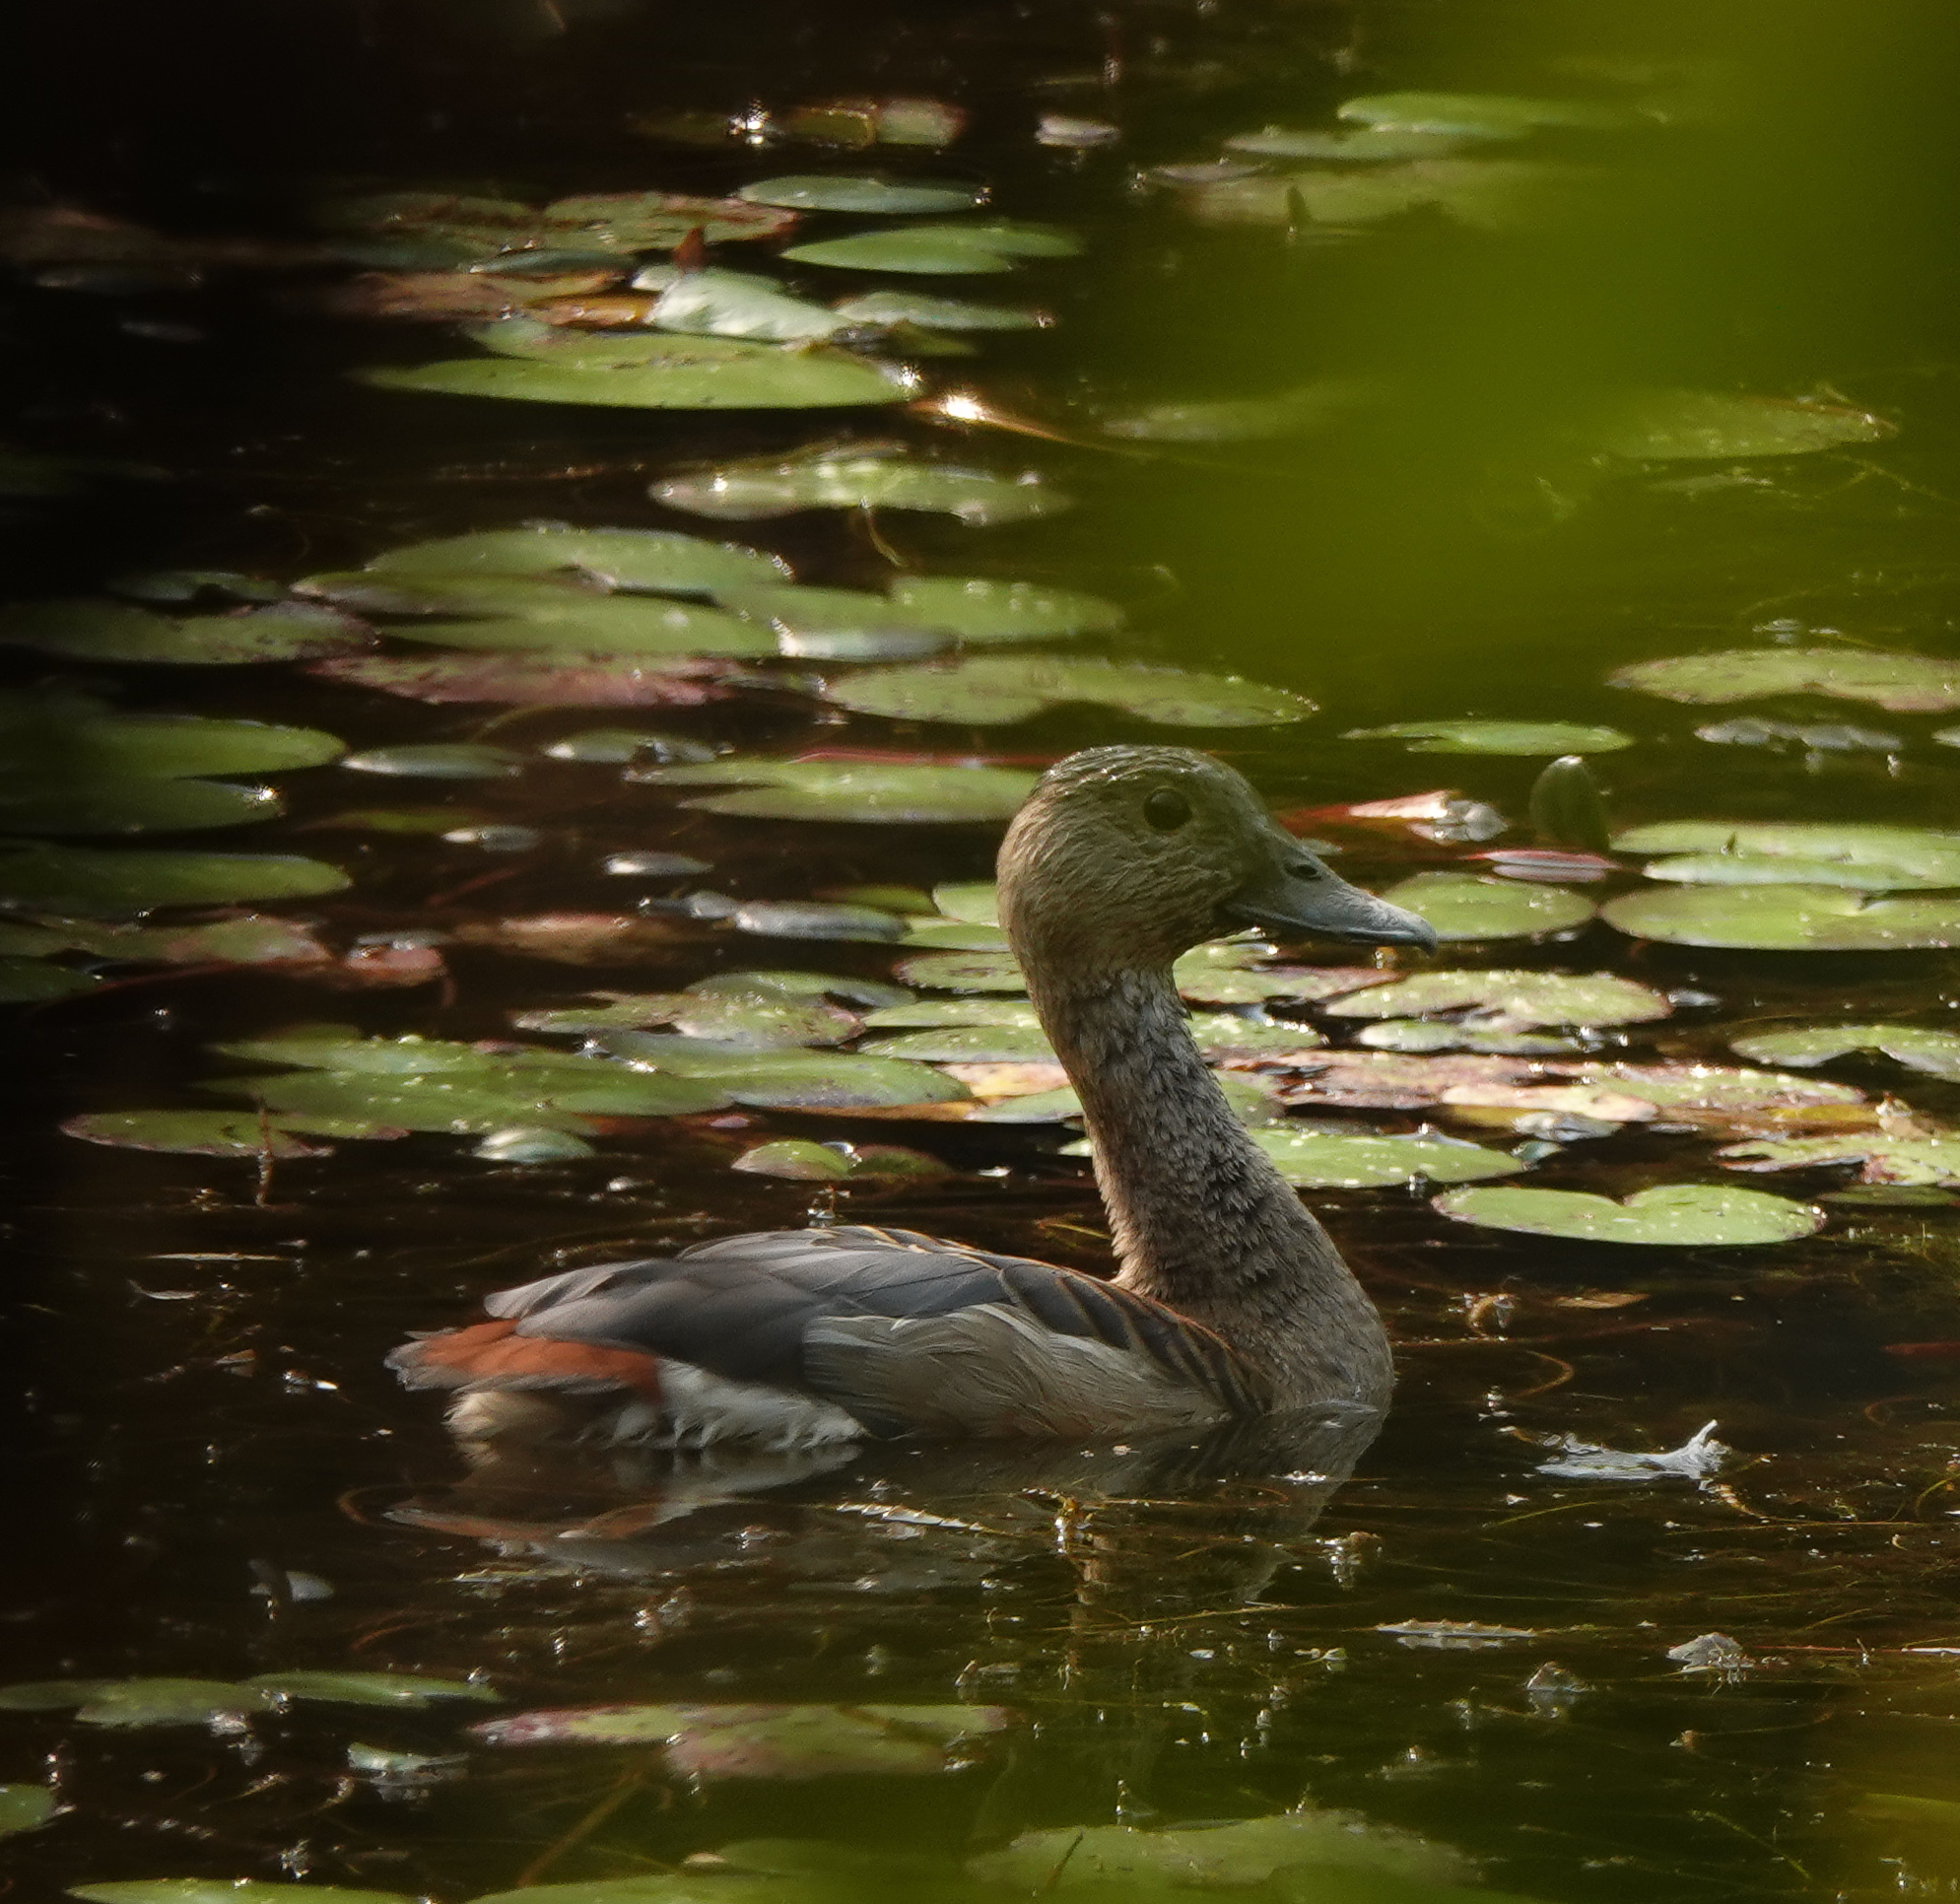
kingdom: Animalia
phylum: Chordata
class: Aves
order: Anseriformes
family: Anatidae
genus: Dendrocygna
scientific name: Dendrocygna javanica
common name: Lesser whistling-duck
